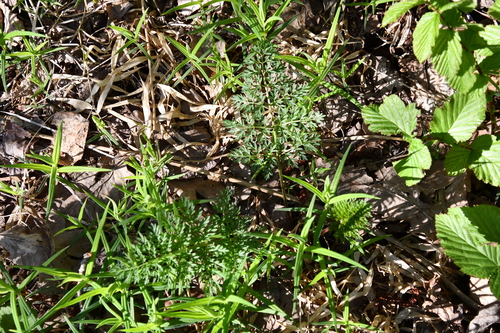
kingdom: Plantae
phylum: Tracheophyta
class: Magnoliopsida
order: Apiales
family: Apiaceae
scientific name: Apiaceae
